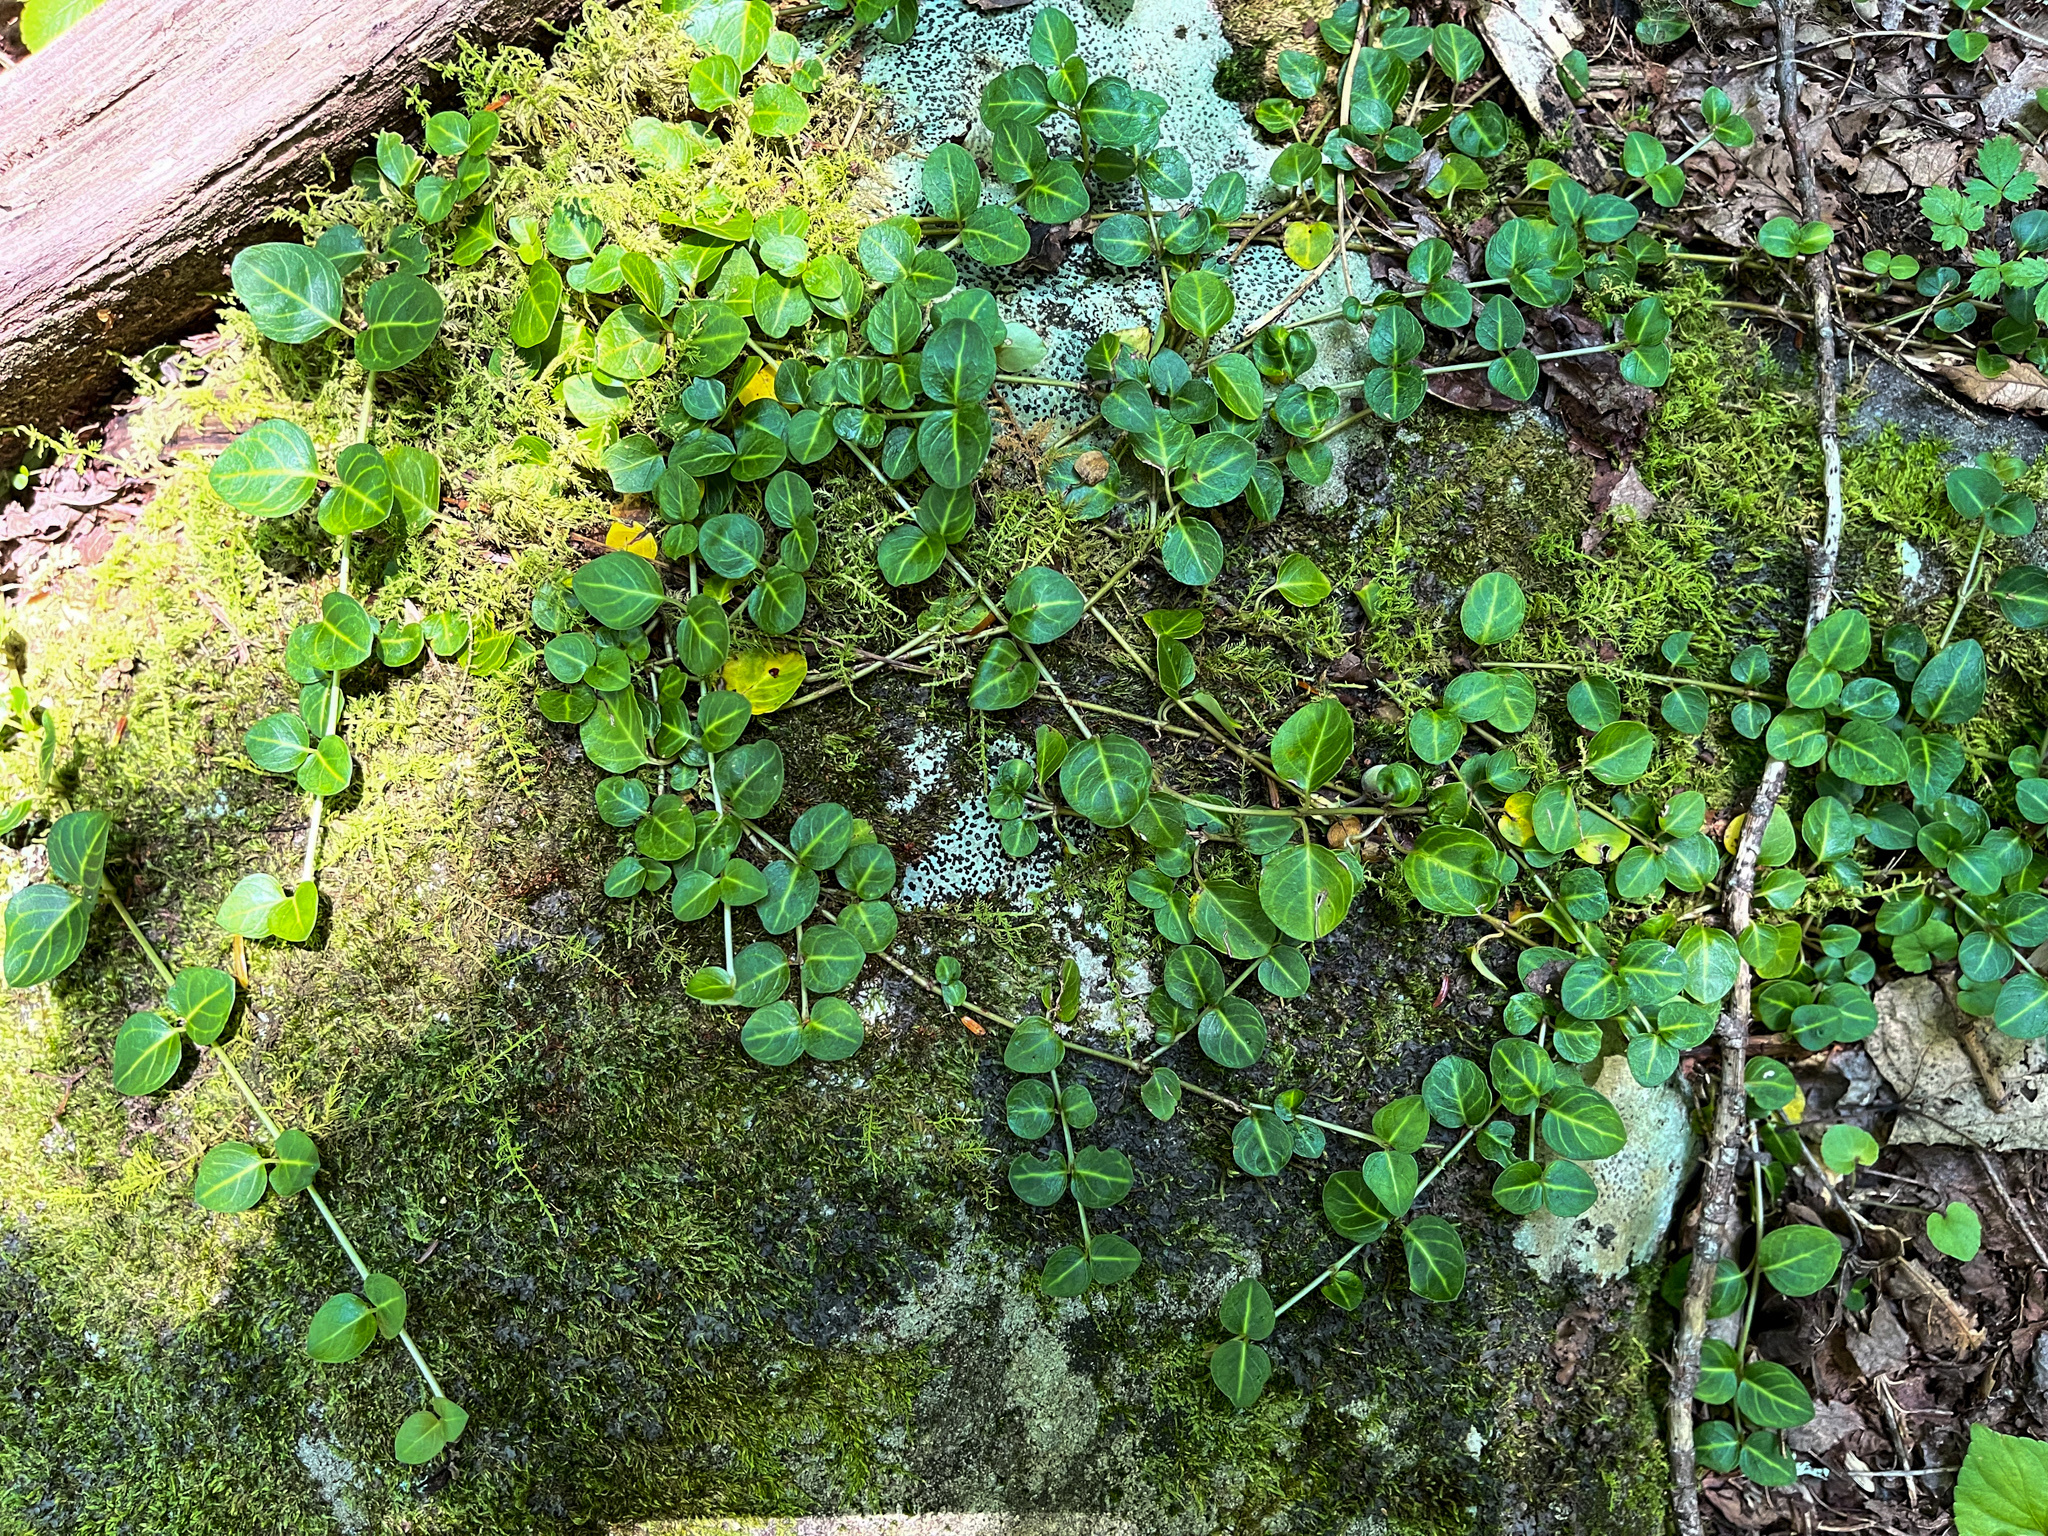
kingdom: Plantae
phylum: Tracheophyta
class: Magnoliopsida
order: Gentianales
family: Rubiaceae
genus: Mitchella
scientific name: Mitchella repens
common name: Partridge-berry
